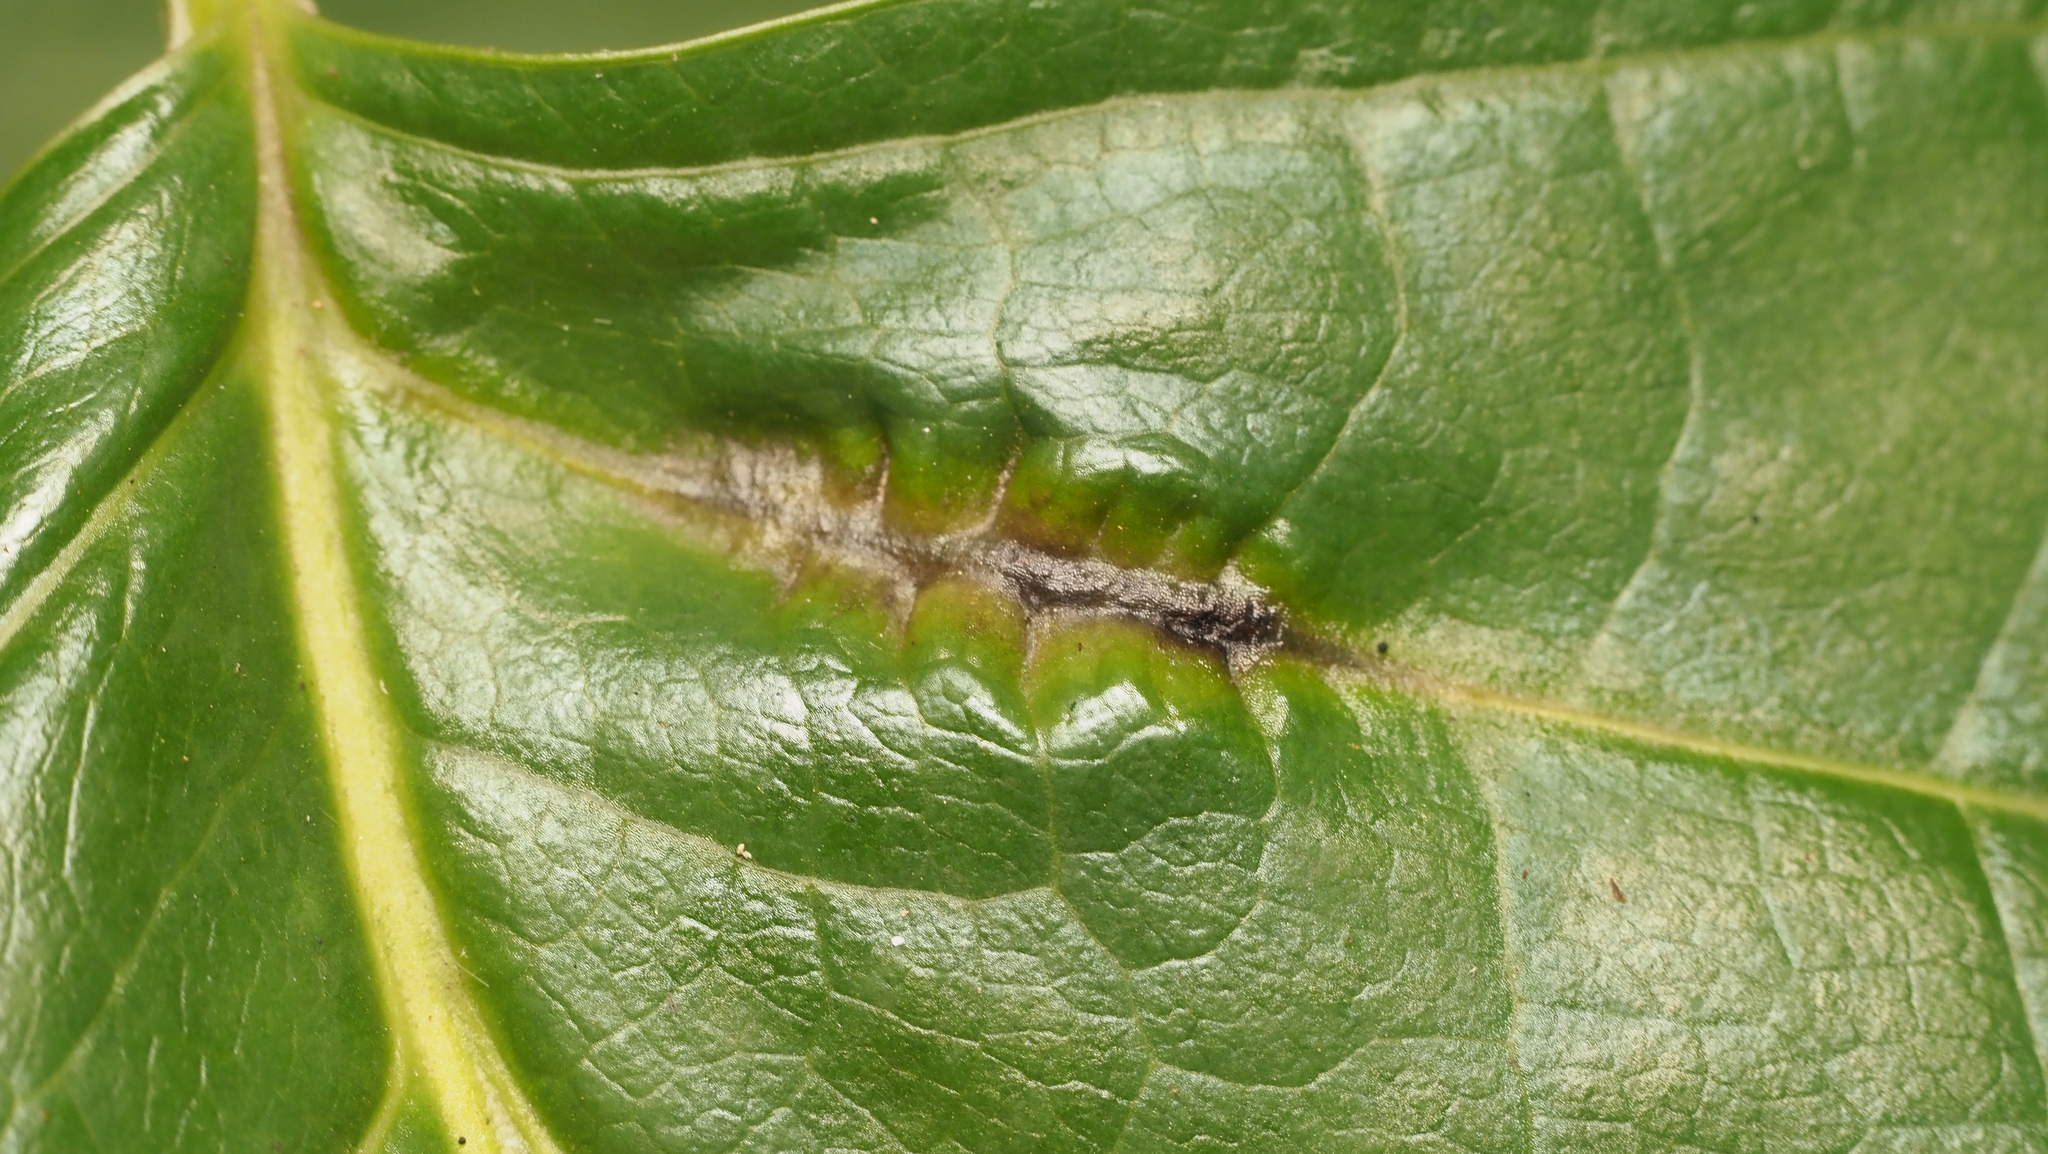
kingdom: Animalia
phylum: Arthropoda
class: Insecta
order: Diptera
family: Cecidomyiidae
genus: Resseliella
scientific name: Resseliella tulipiferae
